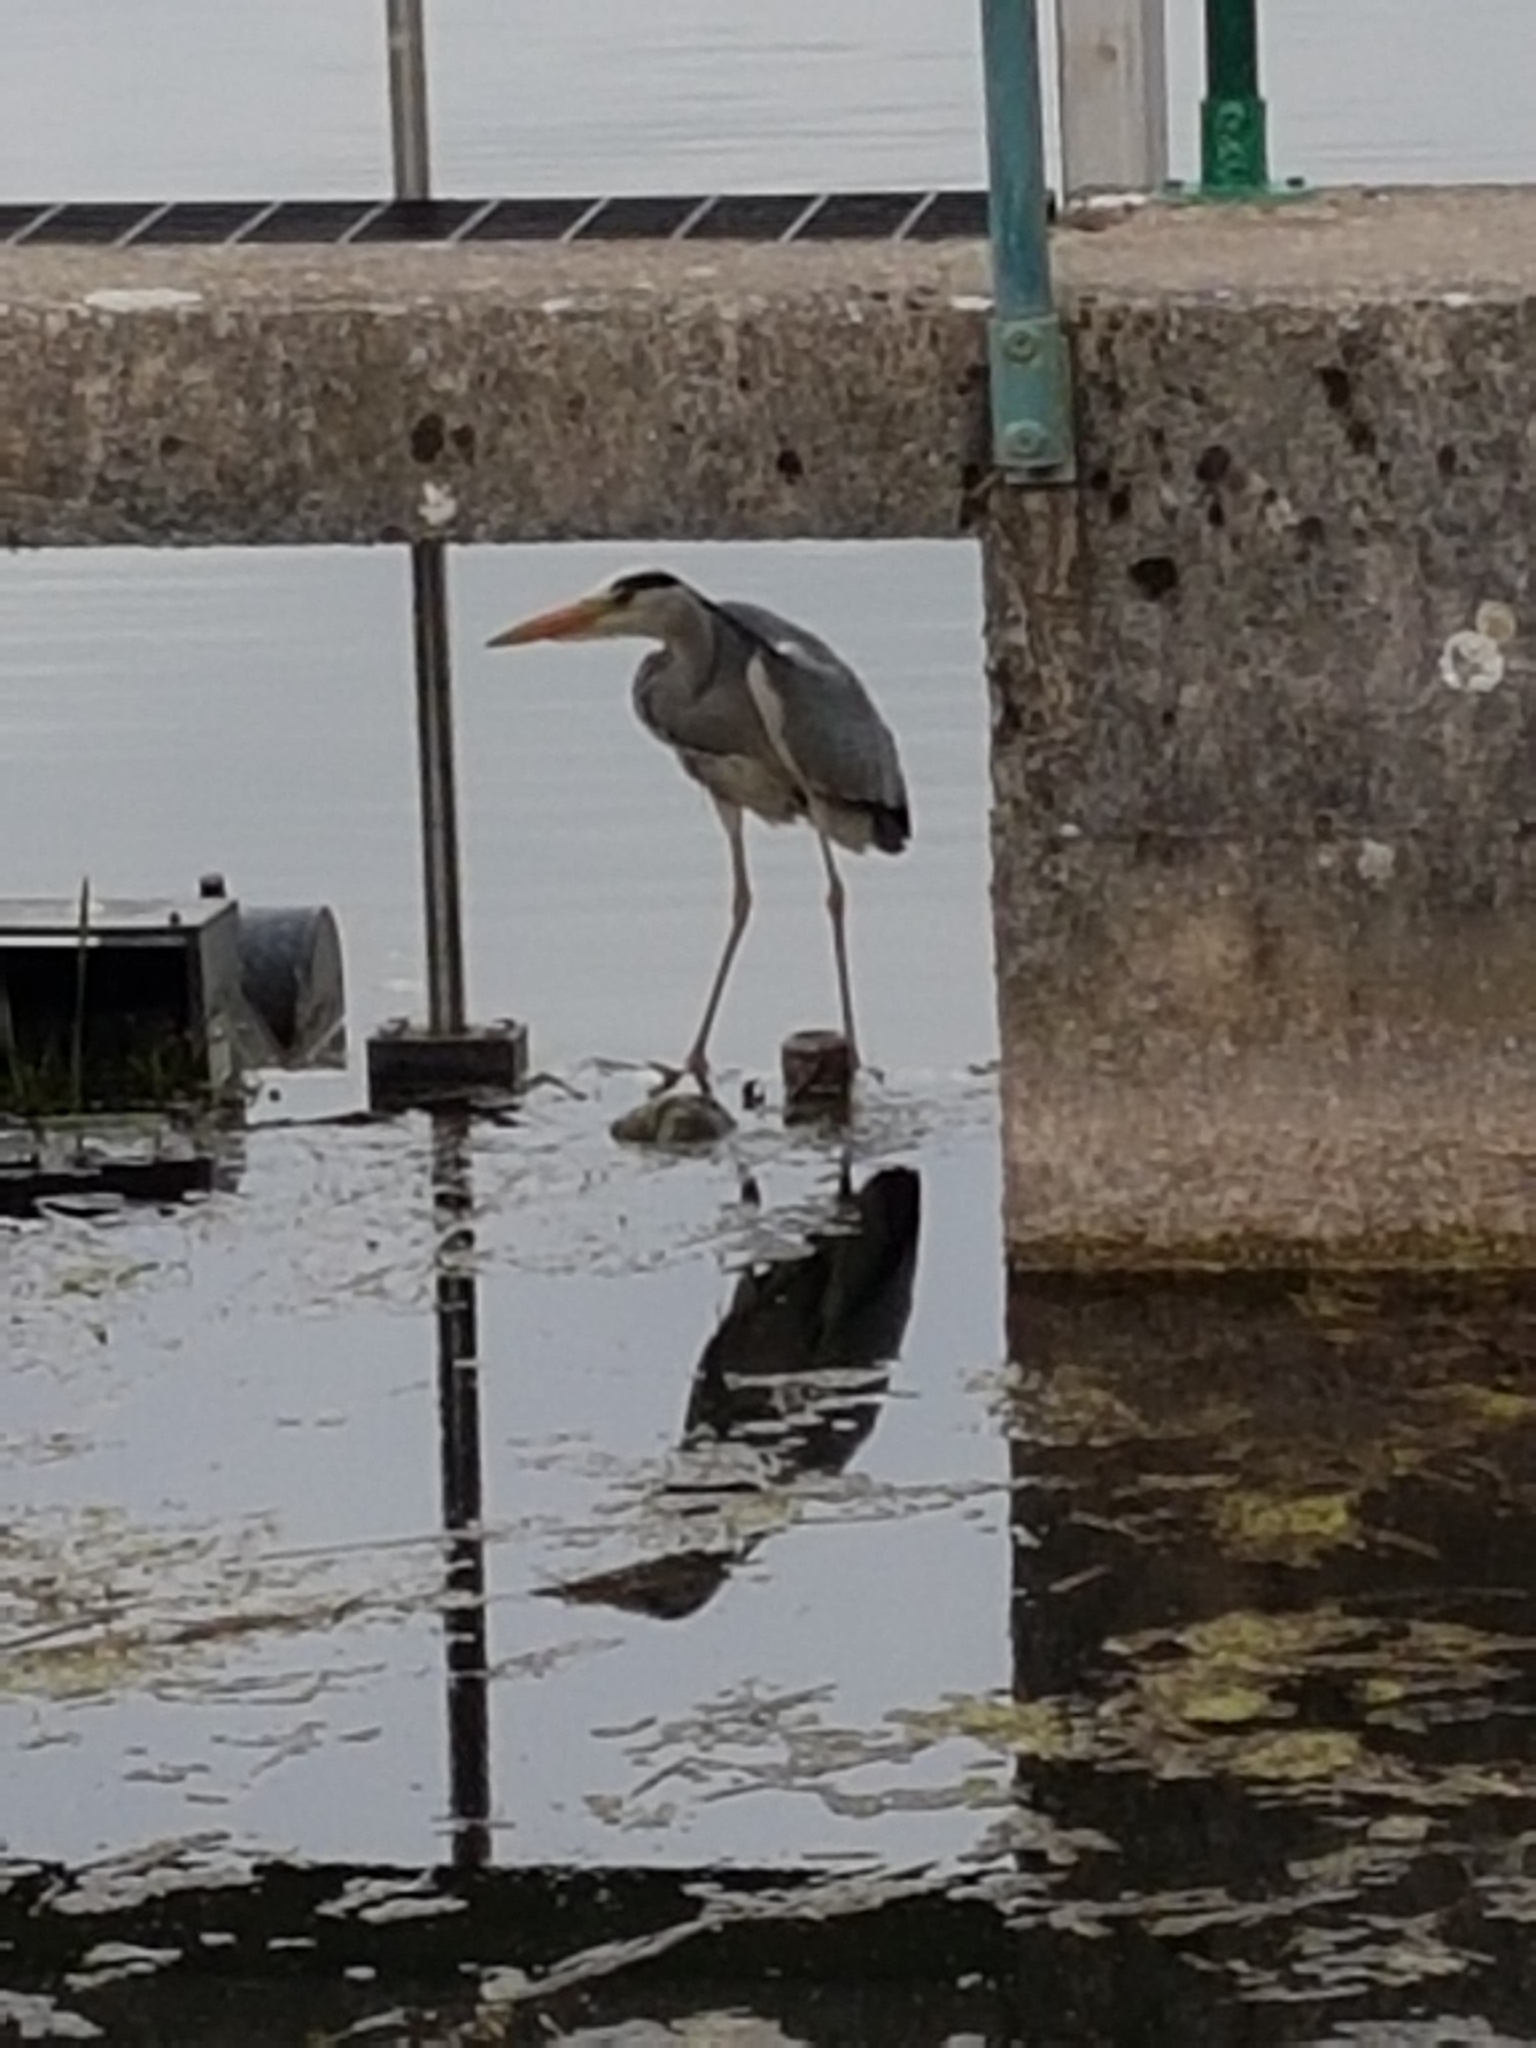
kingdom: Animalia
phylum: Chordata
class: Aves
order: Pelecaniformes
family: Ardeidae
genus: Ardea
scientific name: Ardea cinerea
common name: Grey heron
